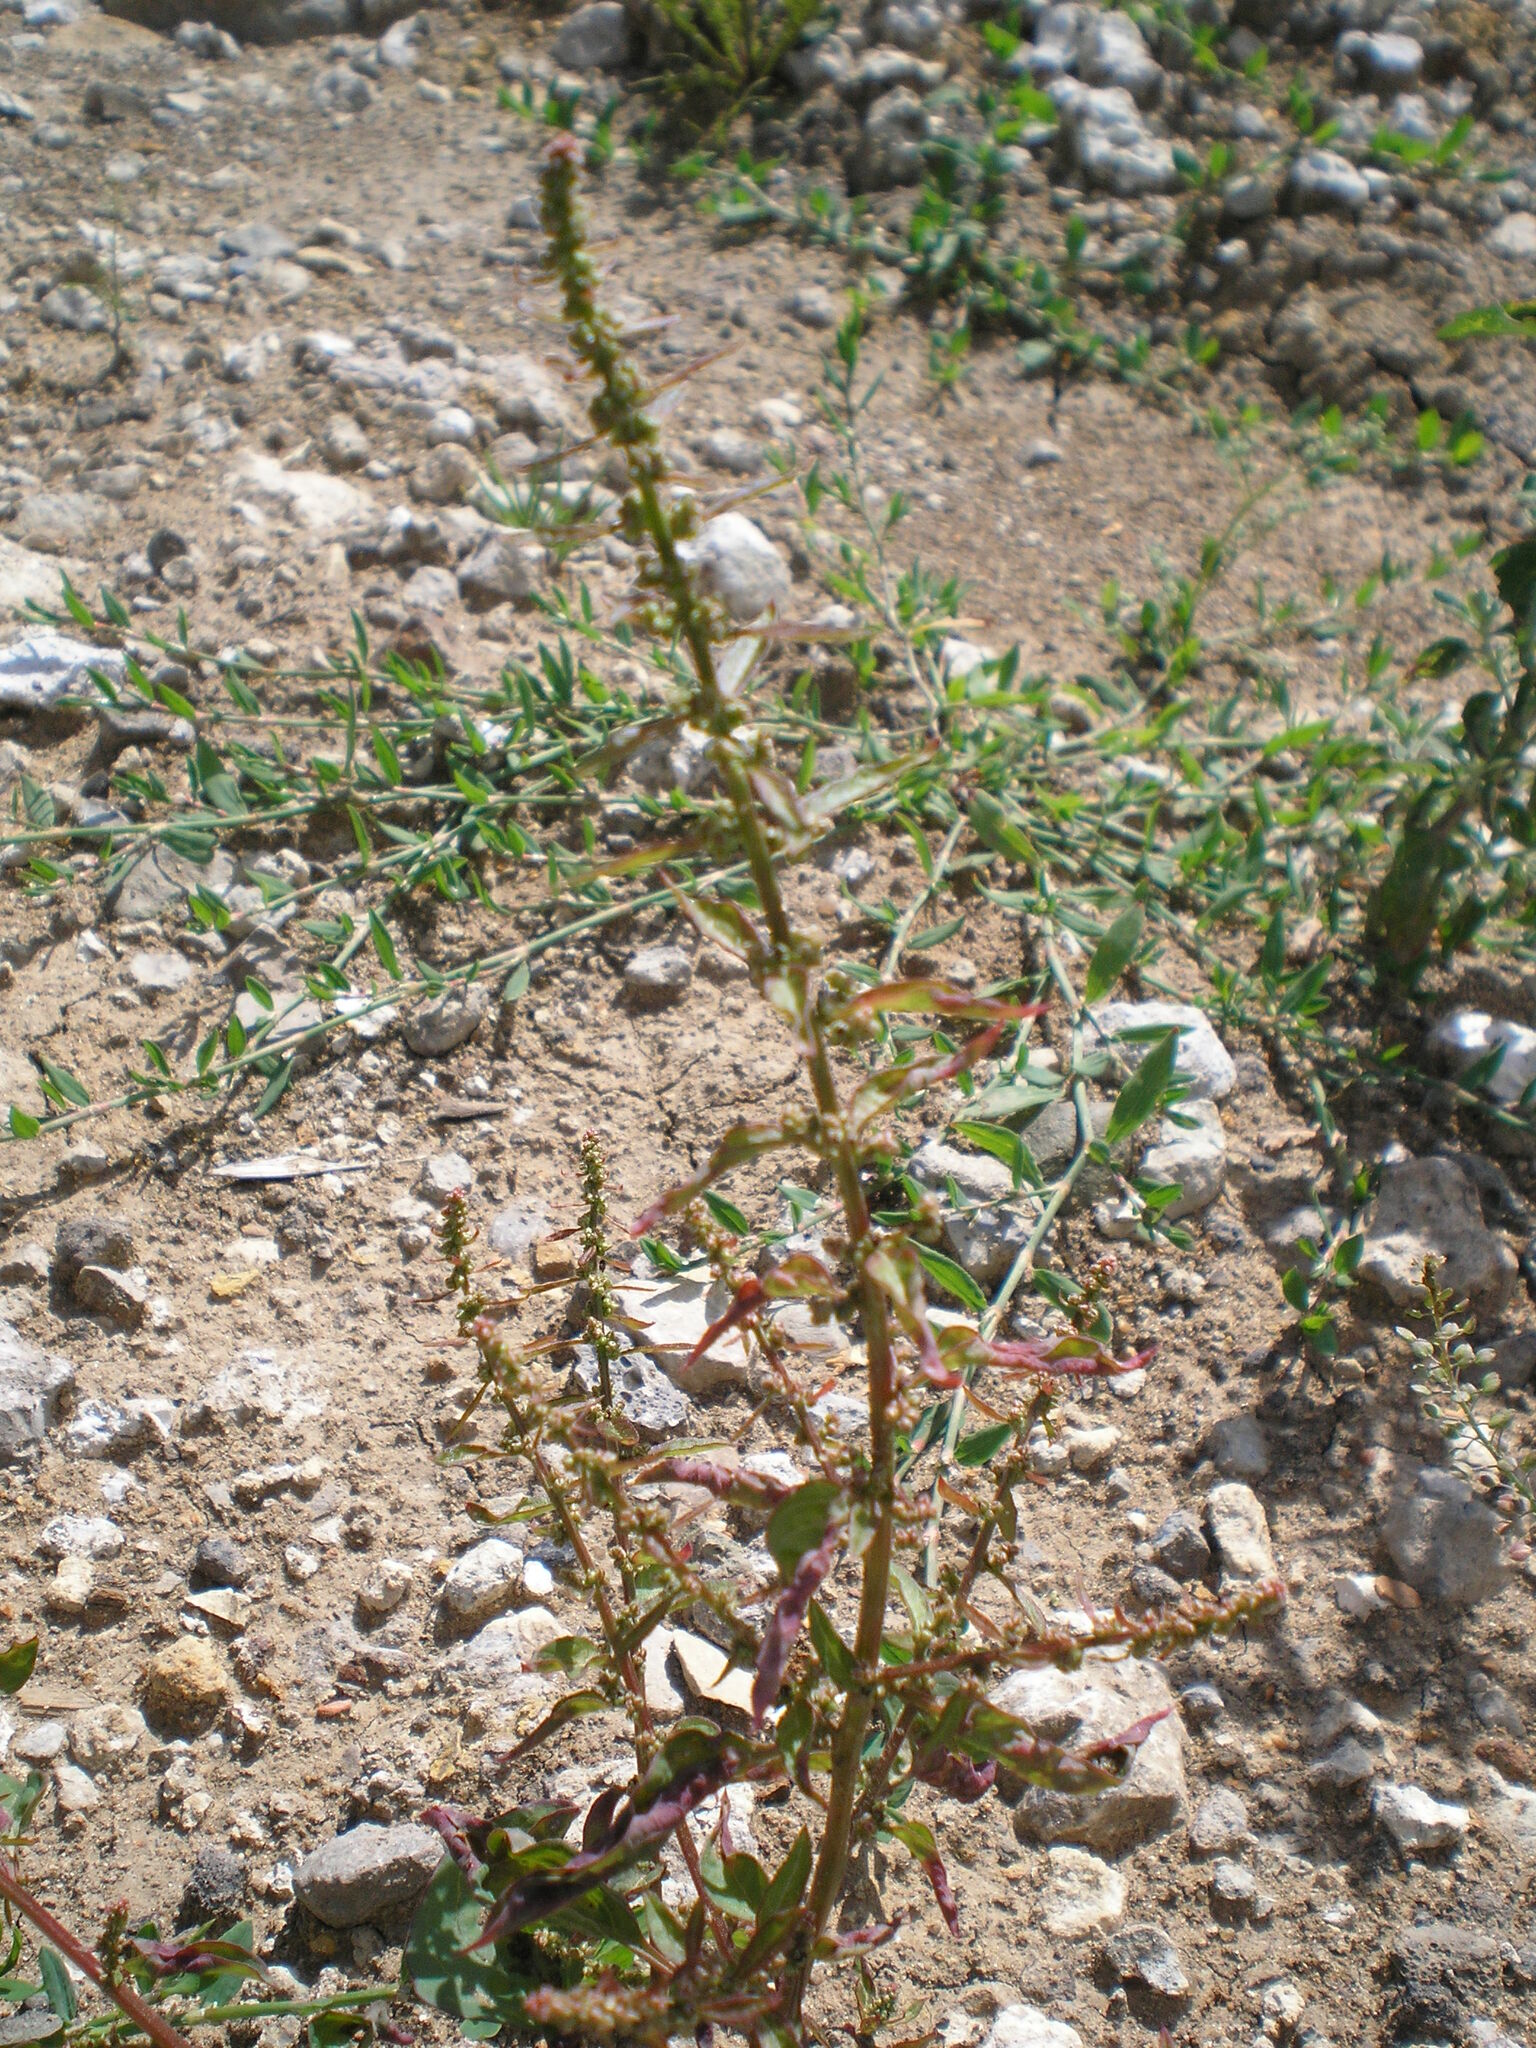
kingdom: Plantae
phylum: Tracheophyta
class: Magnoliopsida
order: Caryophyllales
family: Amaranthaceae
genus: Lipandra
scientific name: Lipandra polysperma
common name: Many-seed goosefoot
